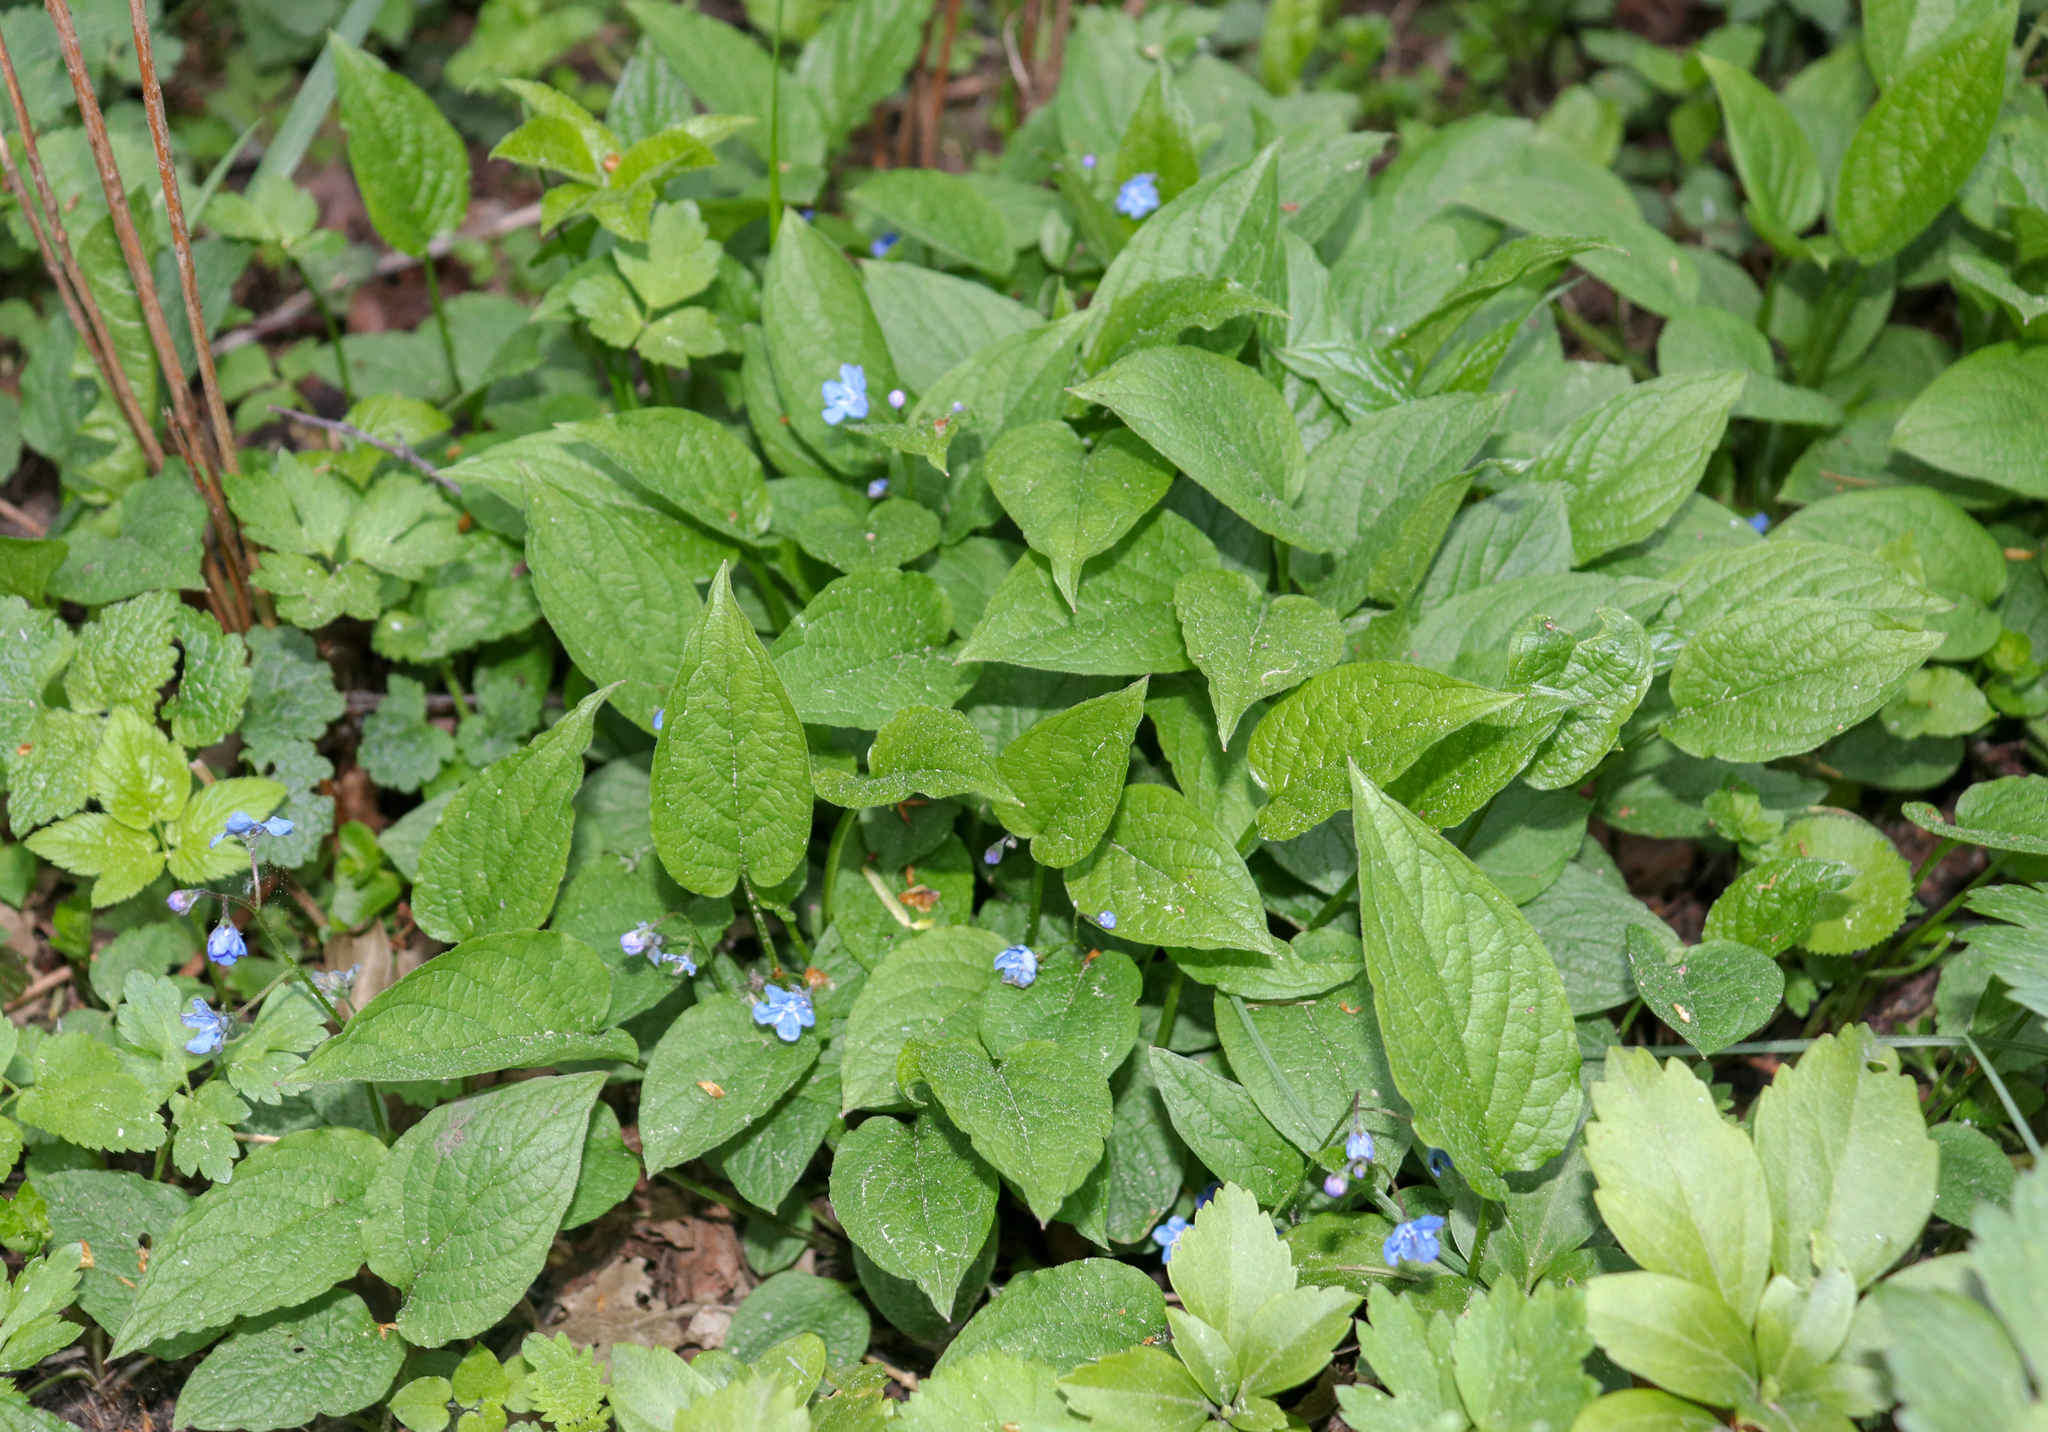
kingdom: Plantae
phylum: Tracheophyta
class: Magnoliopsida
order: Boraginales
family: Boraginaceae
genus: Omphalodes
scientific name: Omphalodes verna
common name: Blue-eyed-mary
